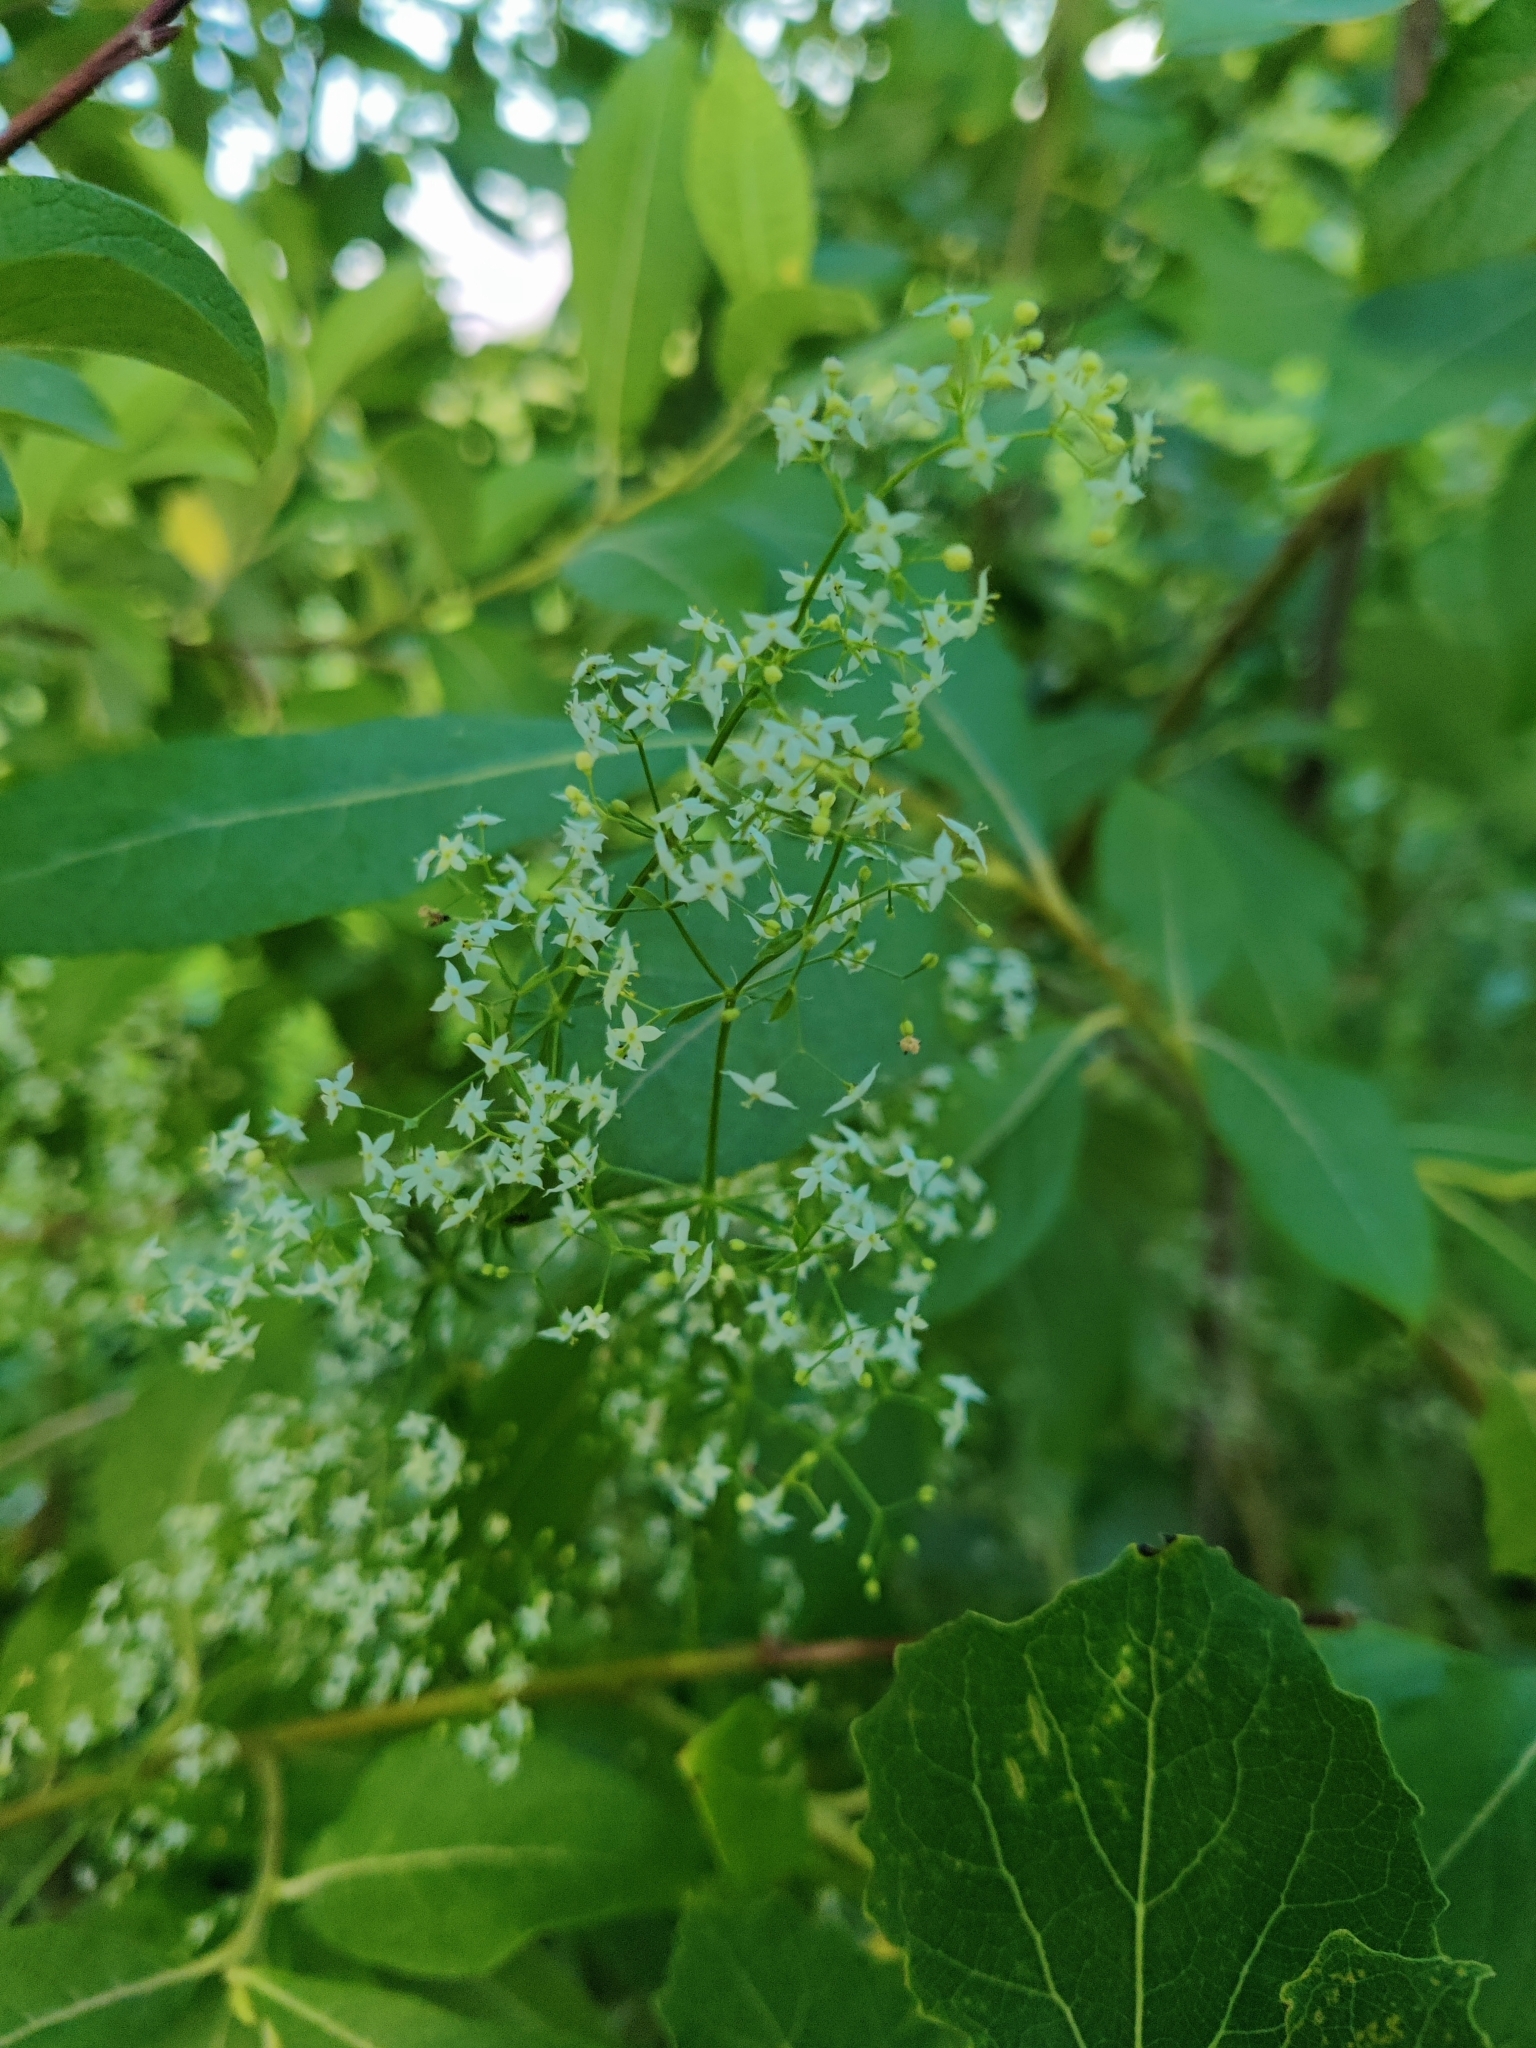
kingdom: Plantae
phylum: Tracheophyta
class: Magnoliopsida
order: Gentianales
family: Rubiaceae
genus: Galium
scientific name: Galium mollugo
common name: Hedge bedstraw
